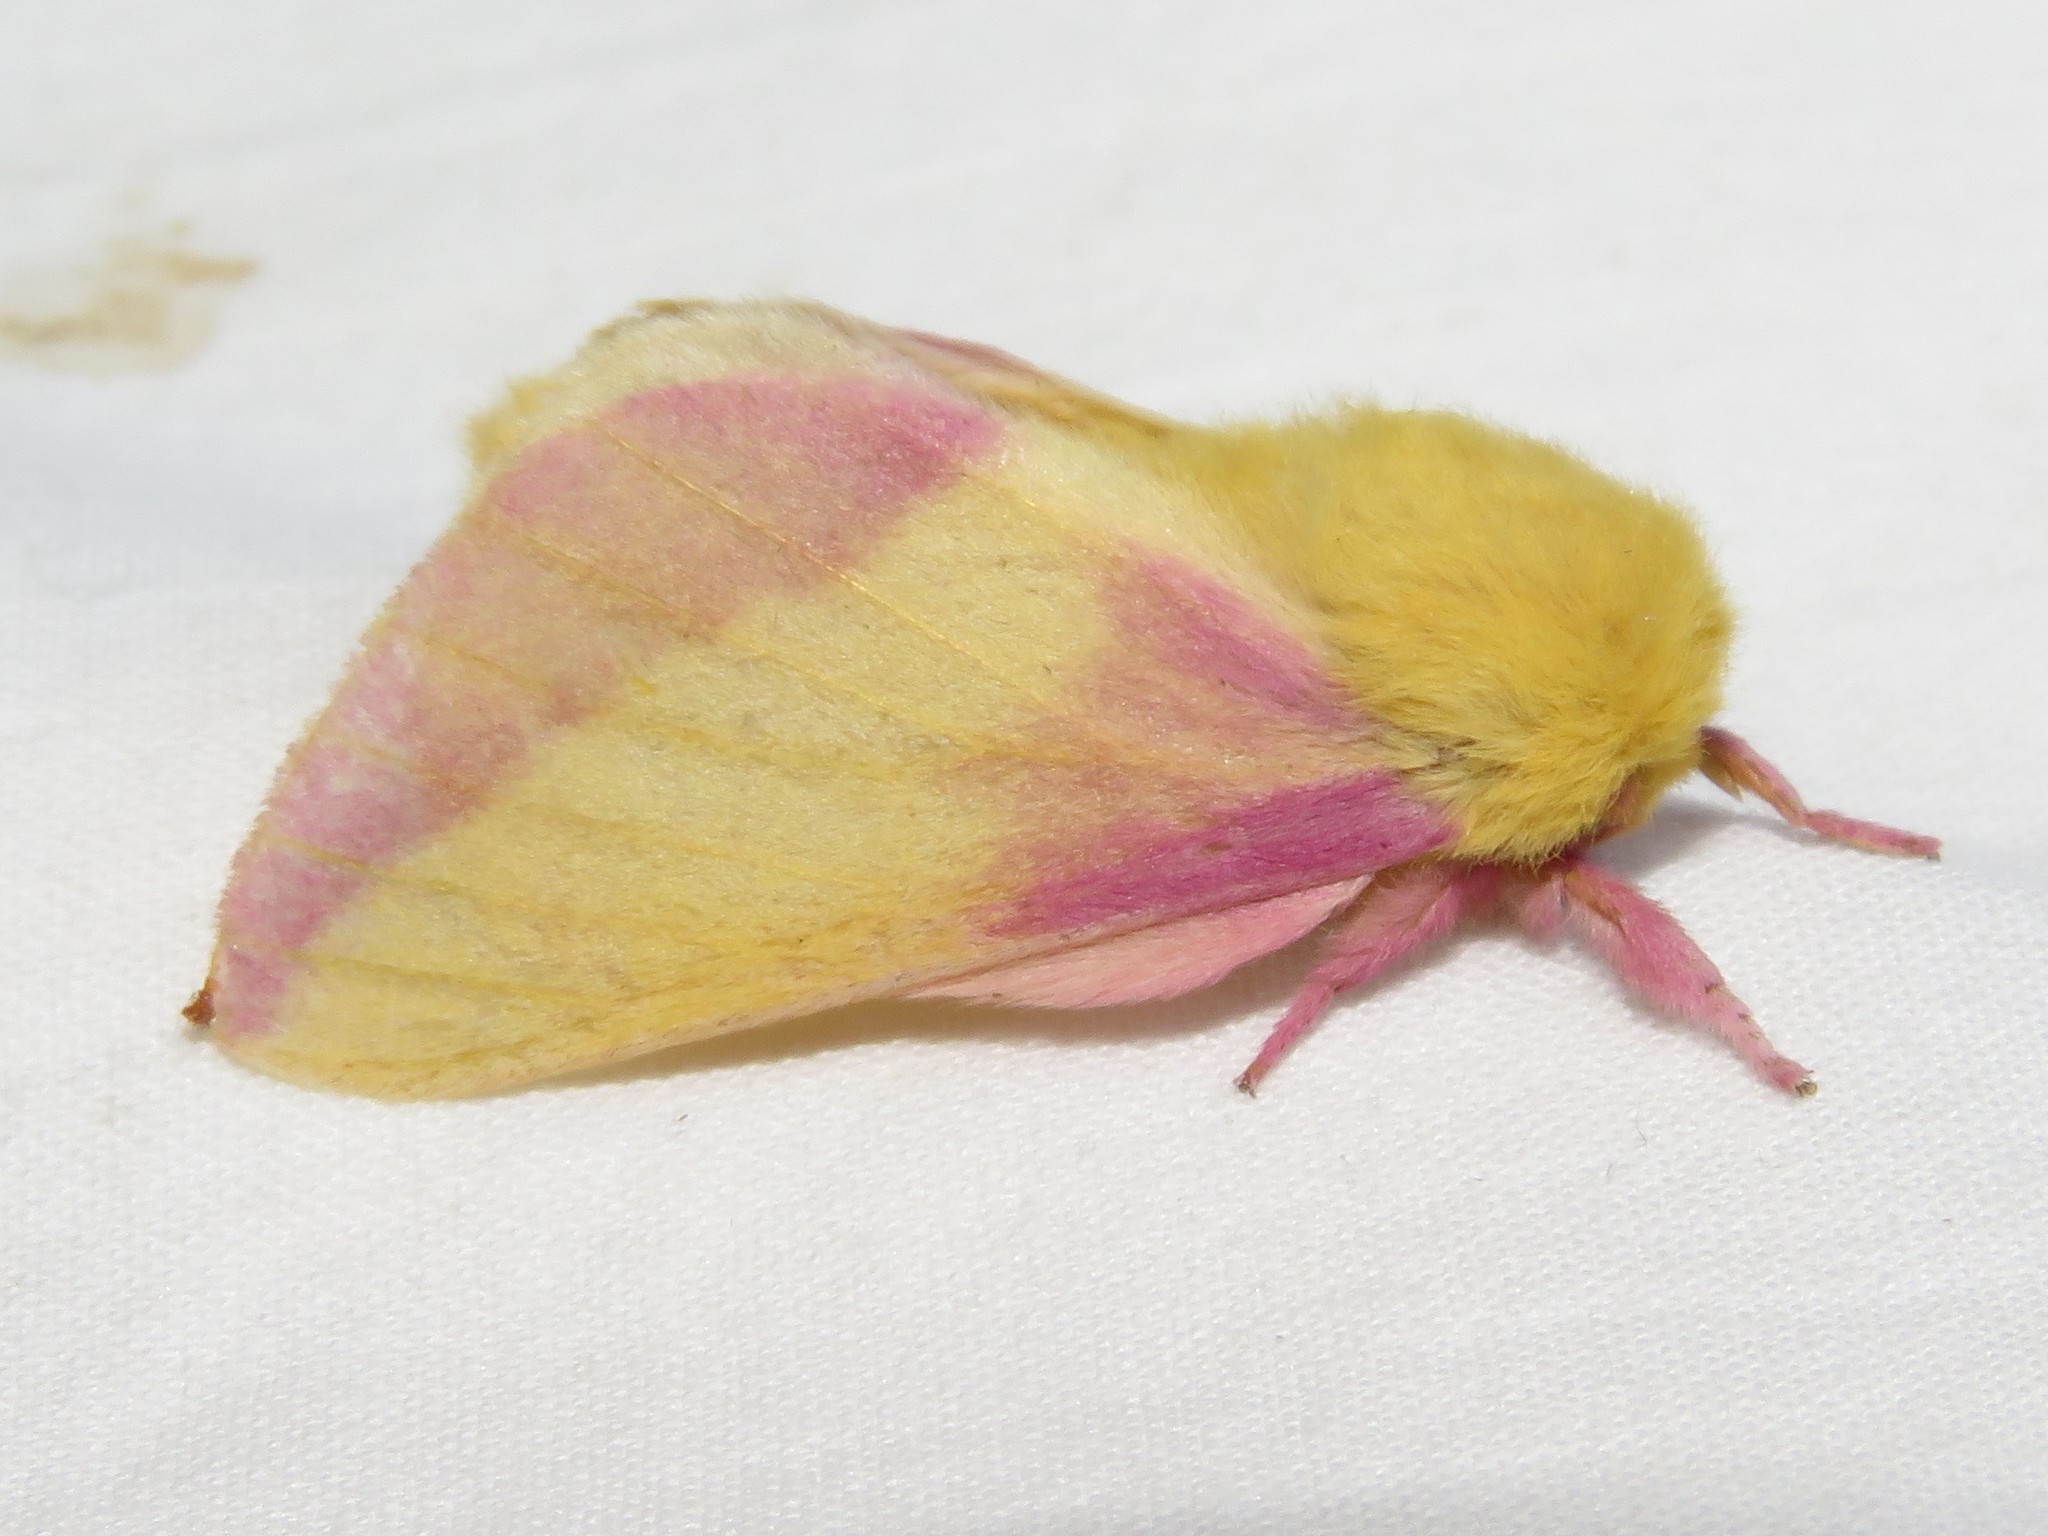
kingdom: Animalia
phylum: Arthropoda
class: Insecta
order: Lepidoptera
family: Saturniidae
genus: Dryocampa
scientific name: Dryocampa rubicunda
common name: Rosy maple moth
